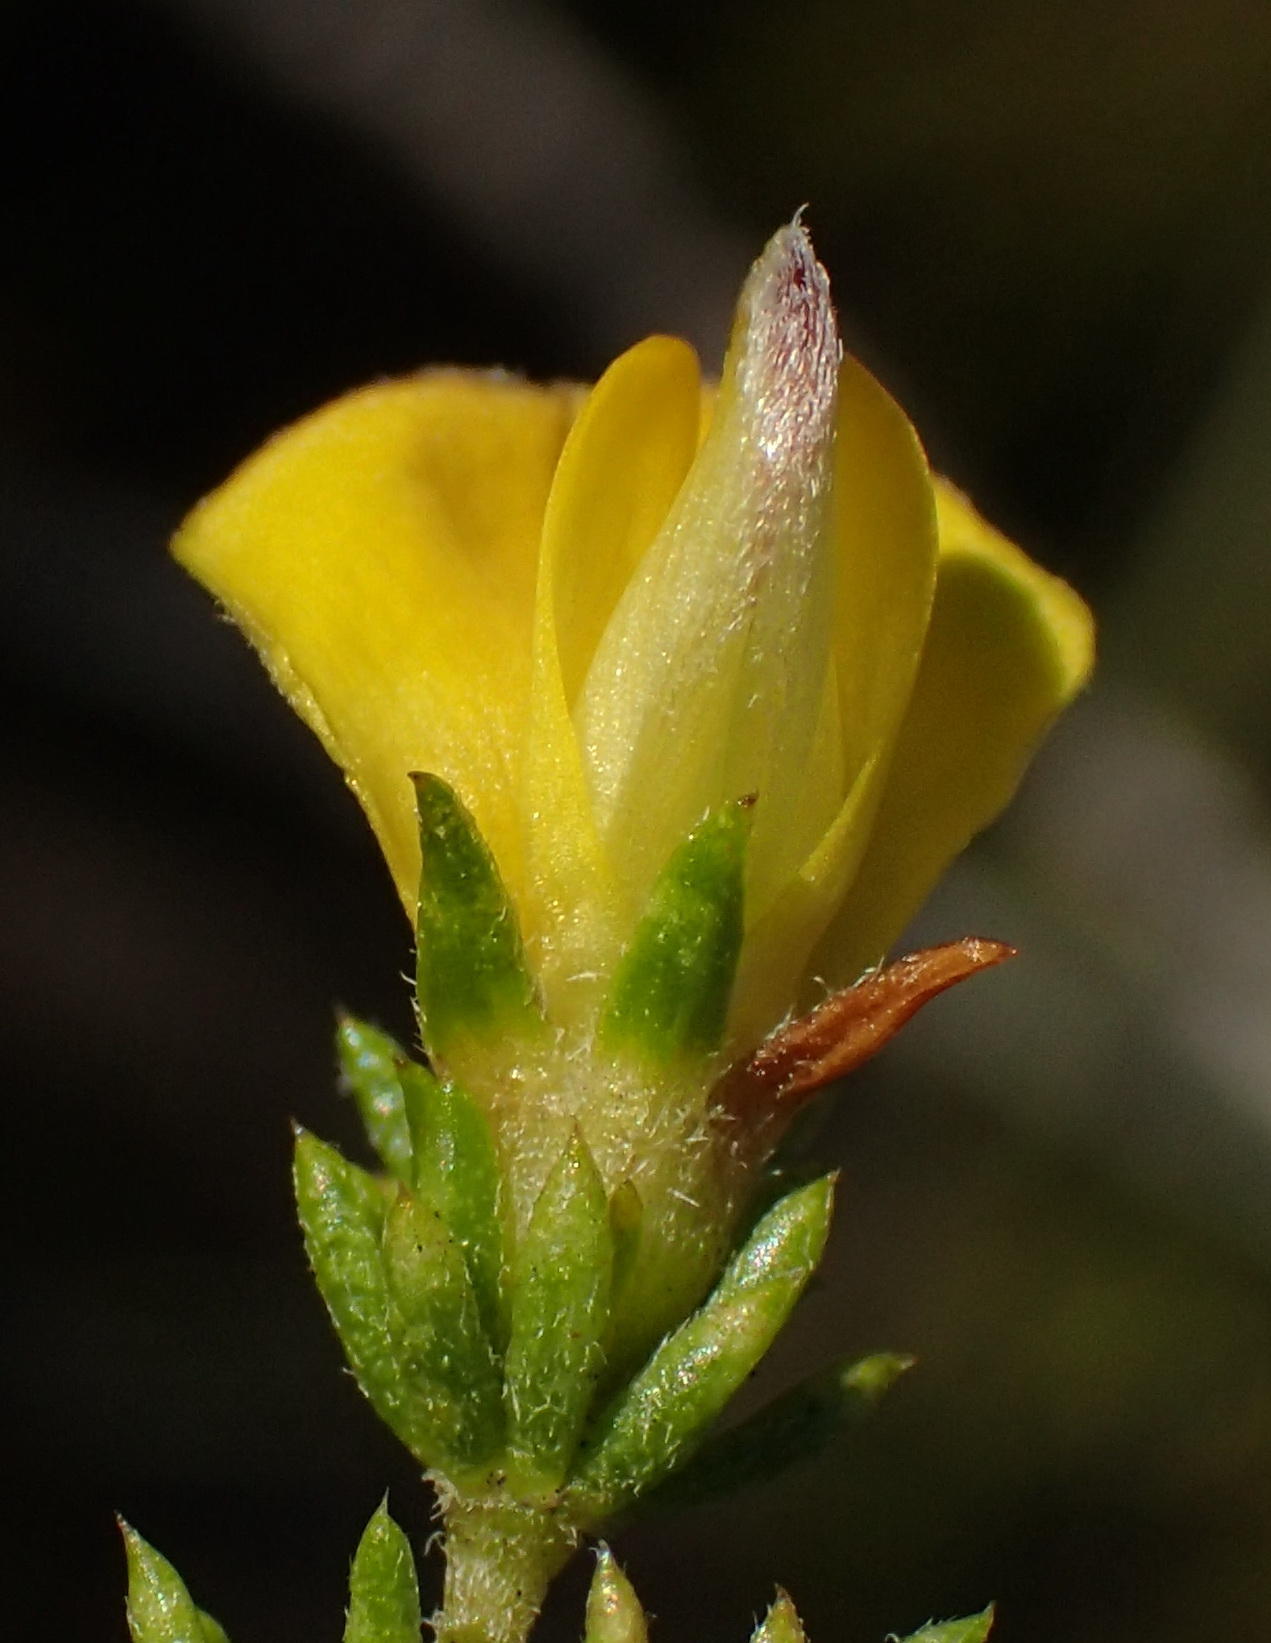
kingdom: Plantae
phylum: Tracheophyta
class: Magnoliopsida
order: Fabales
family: Fabaceae
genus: Aspalathus
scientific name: Aspalathus asparagoides
